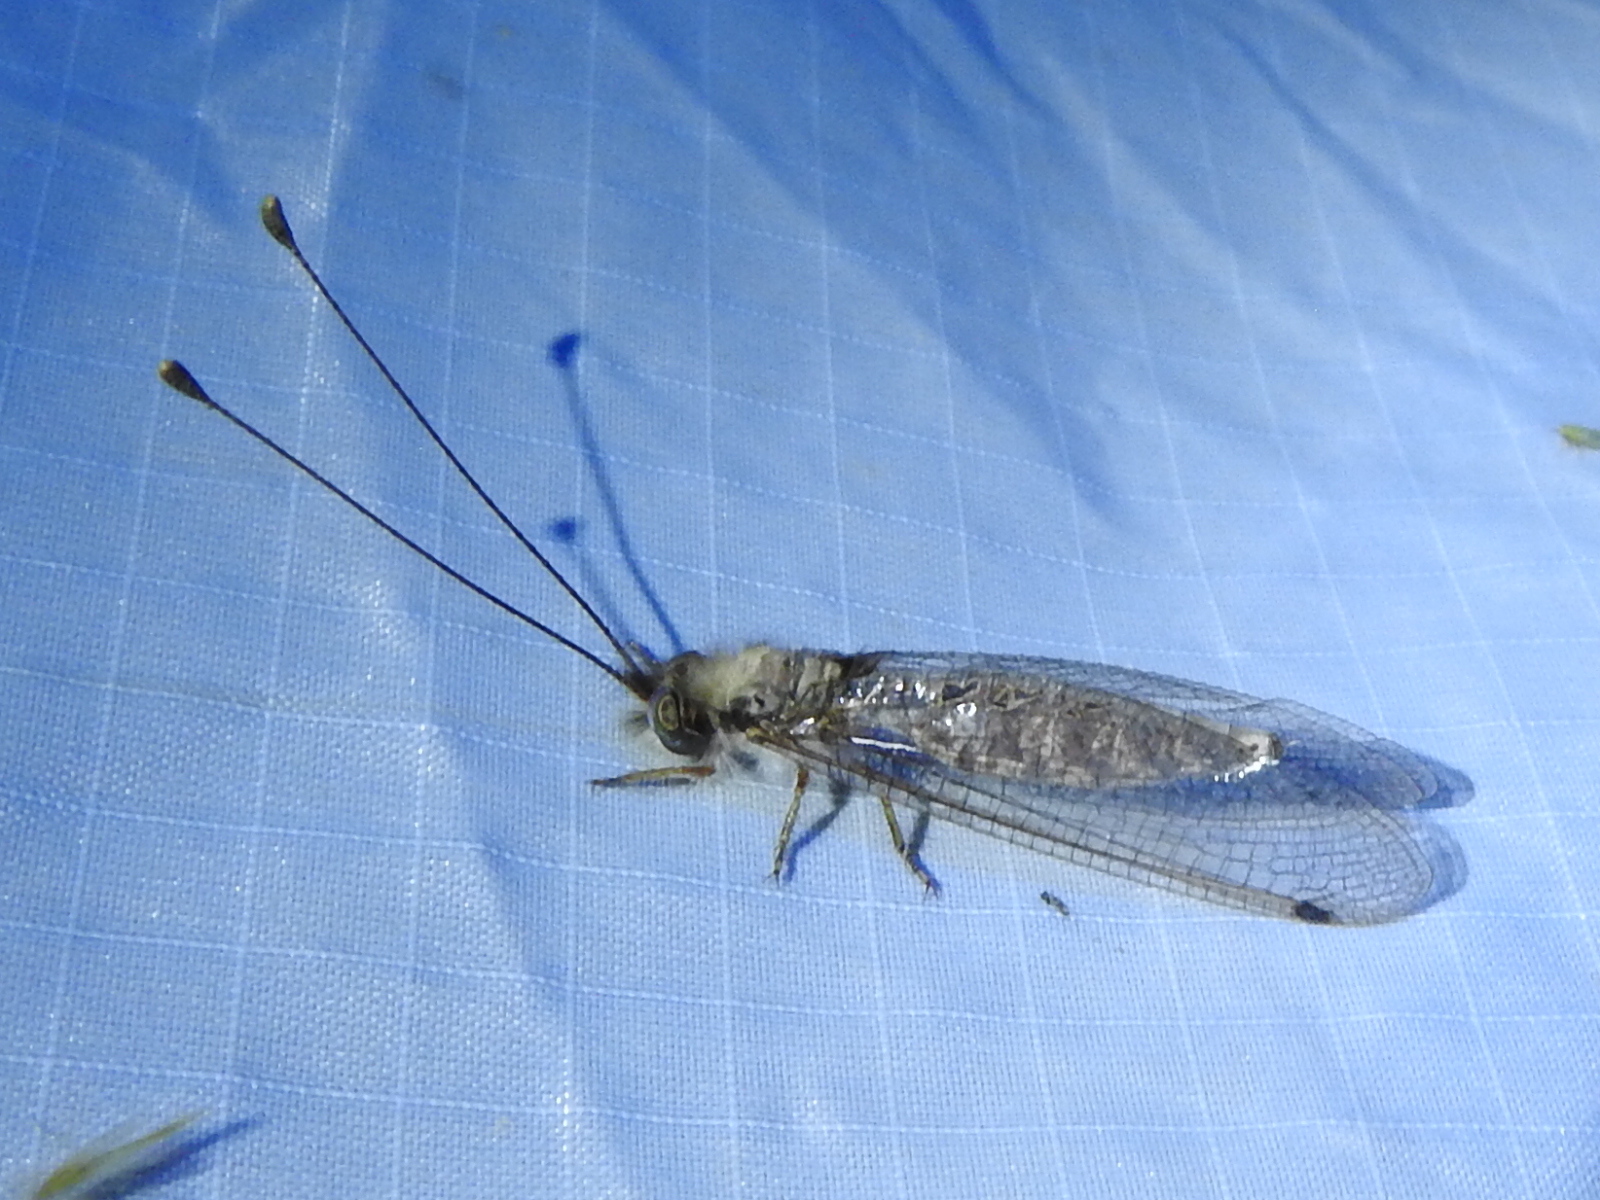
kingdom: Animalia
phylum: Arthropoda
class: Insecta
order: Neuroptera
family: Ascalaphidae
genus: Ululodes
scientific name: Ululodes macleayanus
